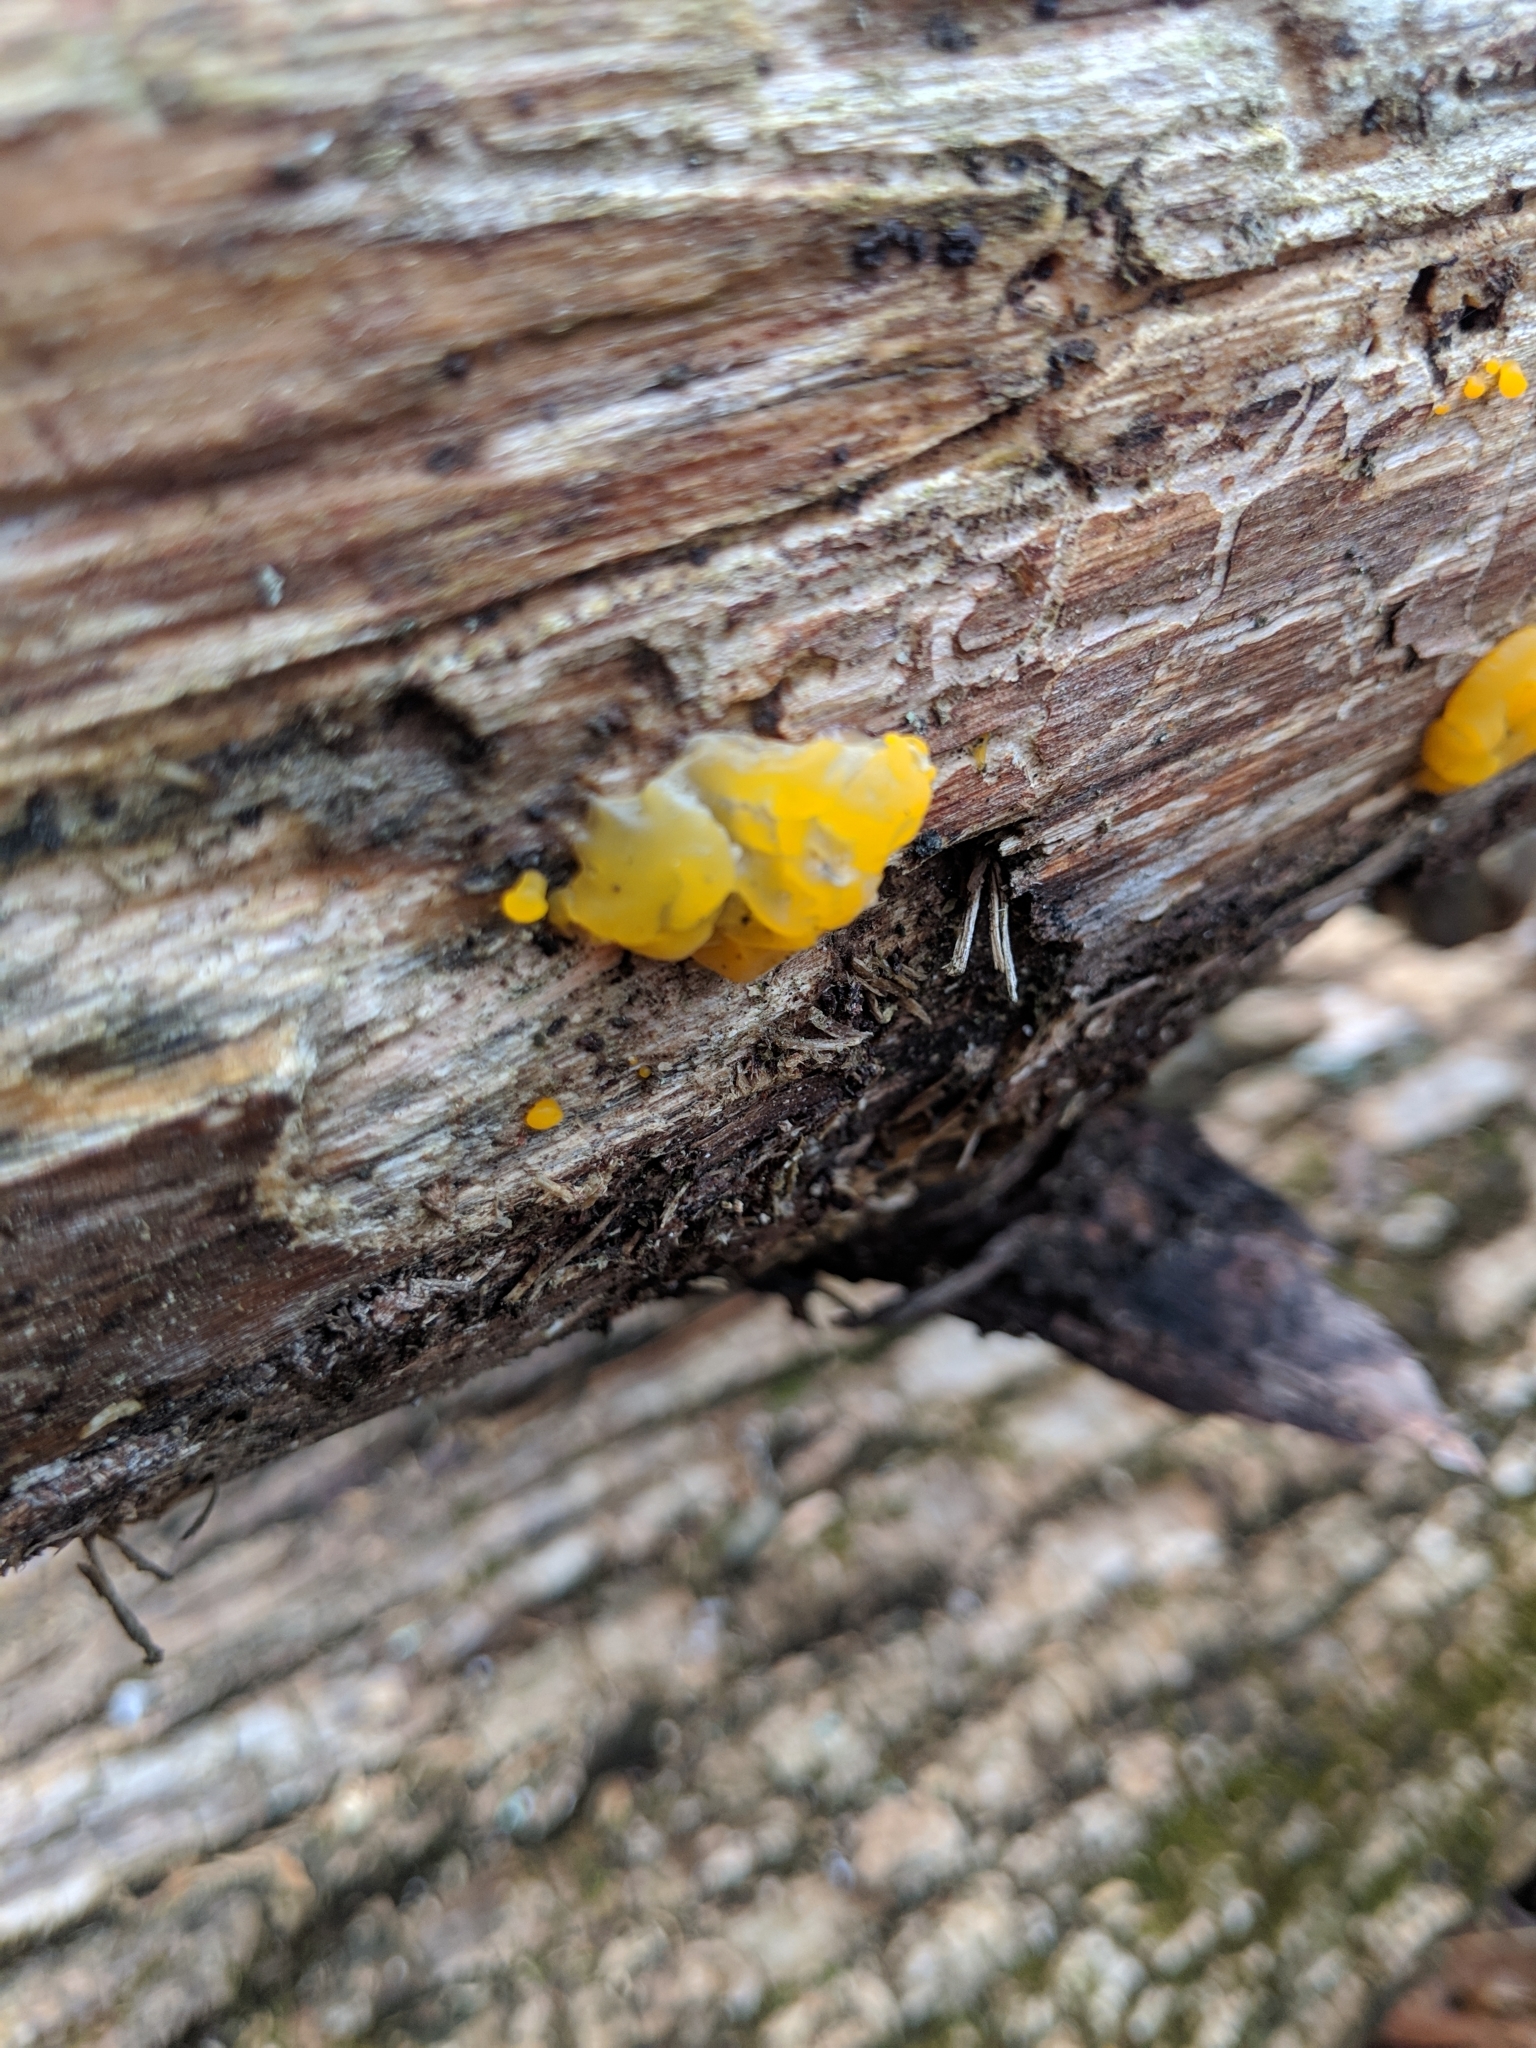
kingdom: Fungi
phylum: Basidiomycota
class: Tremellomycetes
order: Tremellales
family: Tremellaceae
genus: Tremella
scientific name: Tremella mesenterica
